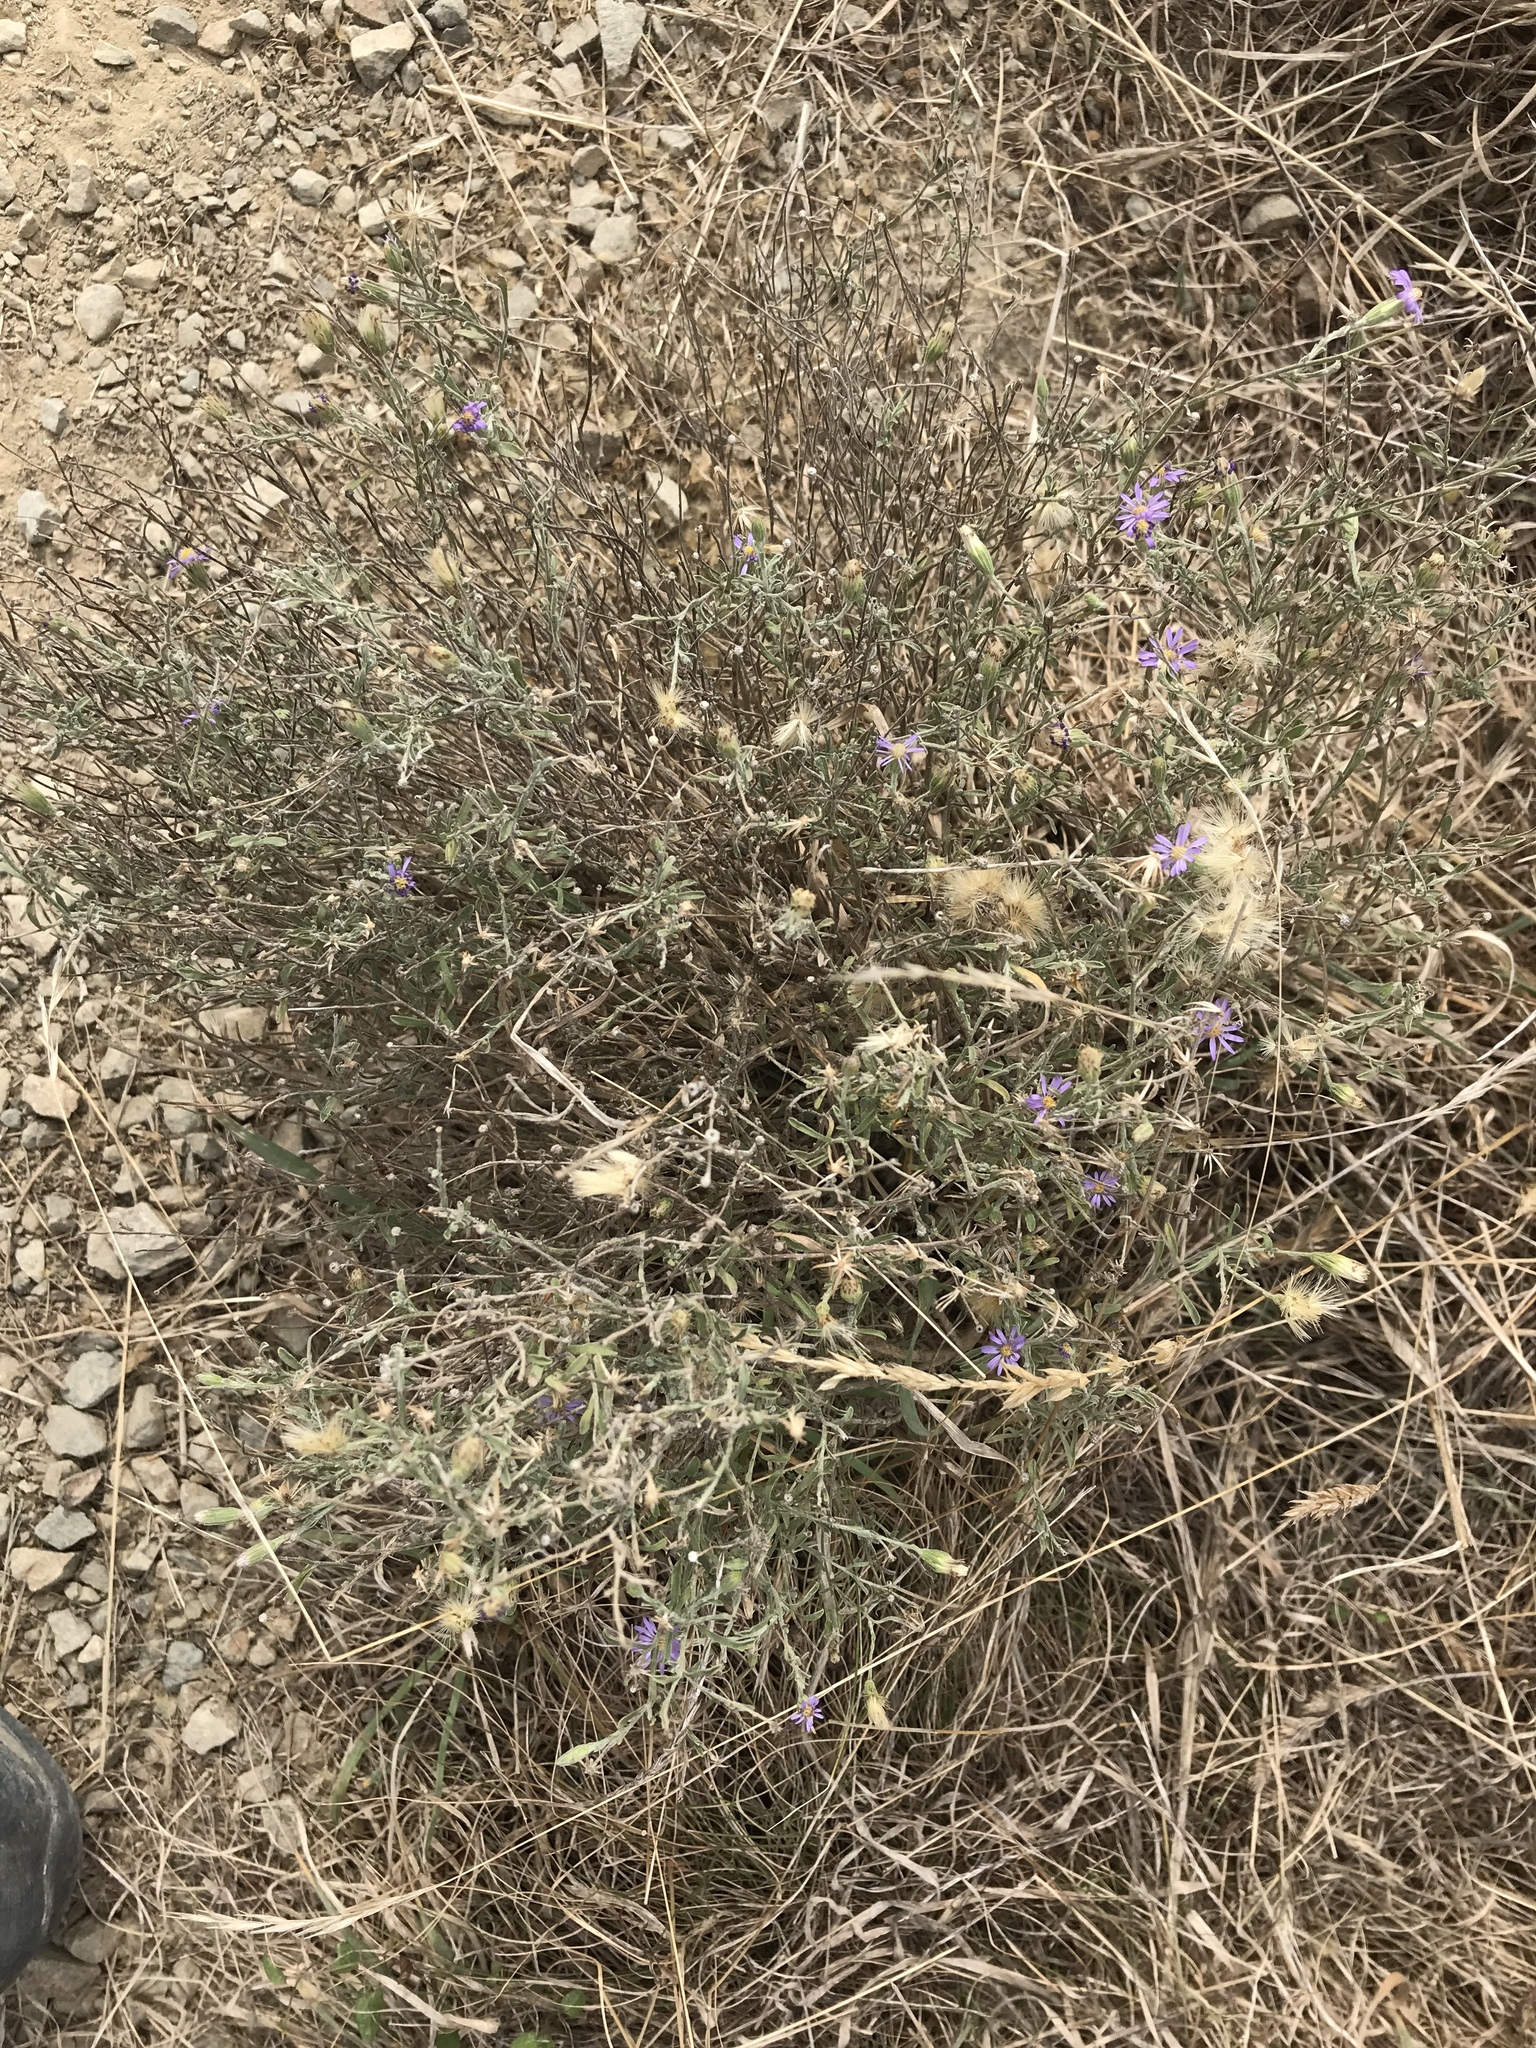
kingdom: Plantae
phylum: Tracheophyta
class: Magnoliopsida
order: Asterales
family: Asteraceae
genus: Vittadinia
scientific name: Vittadinia gracilis
